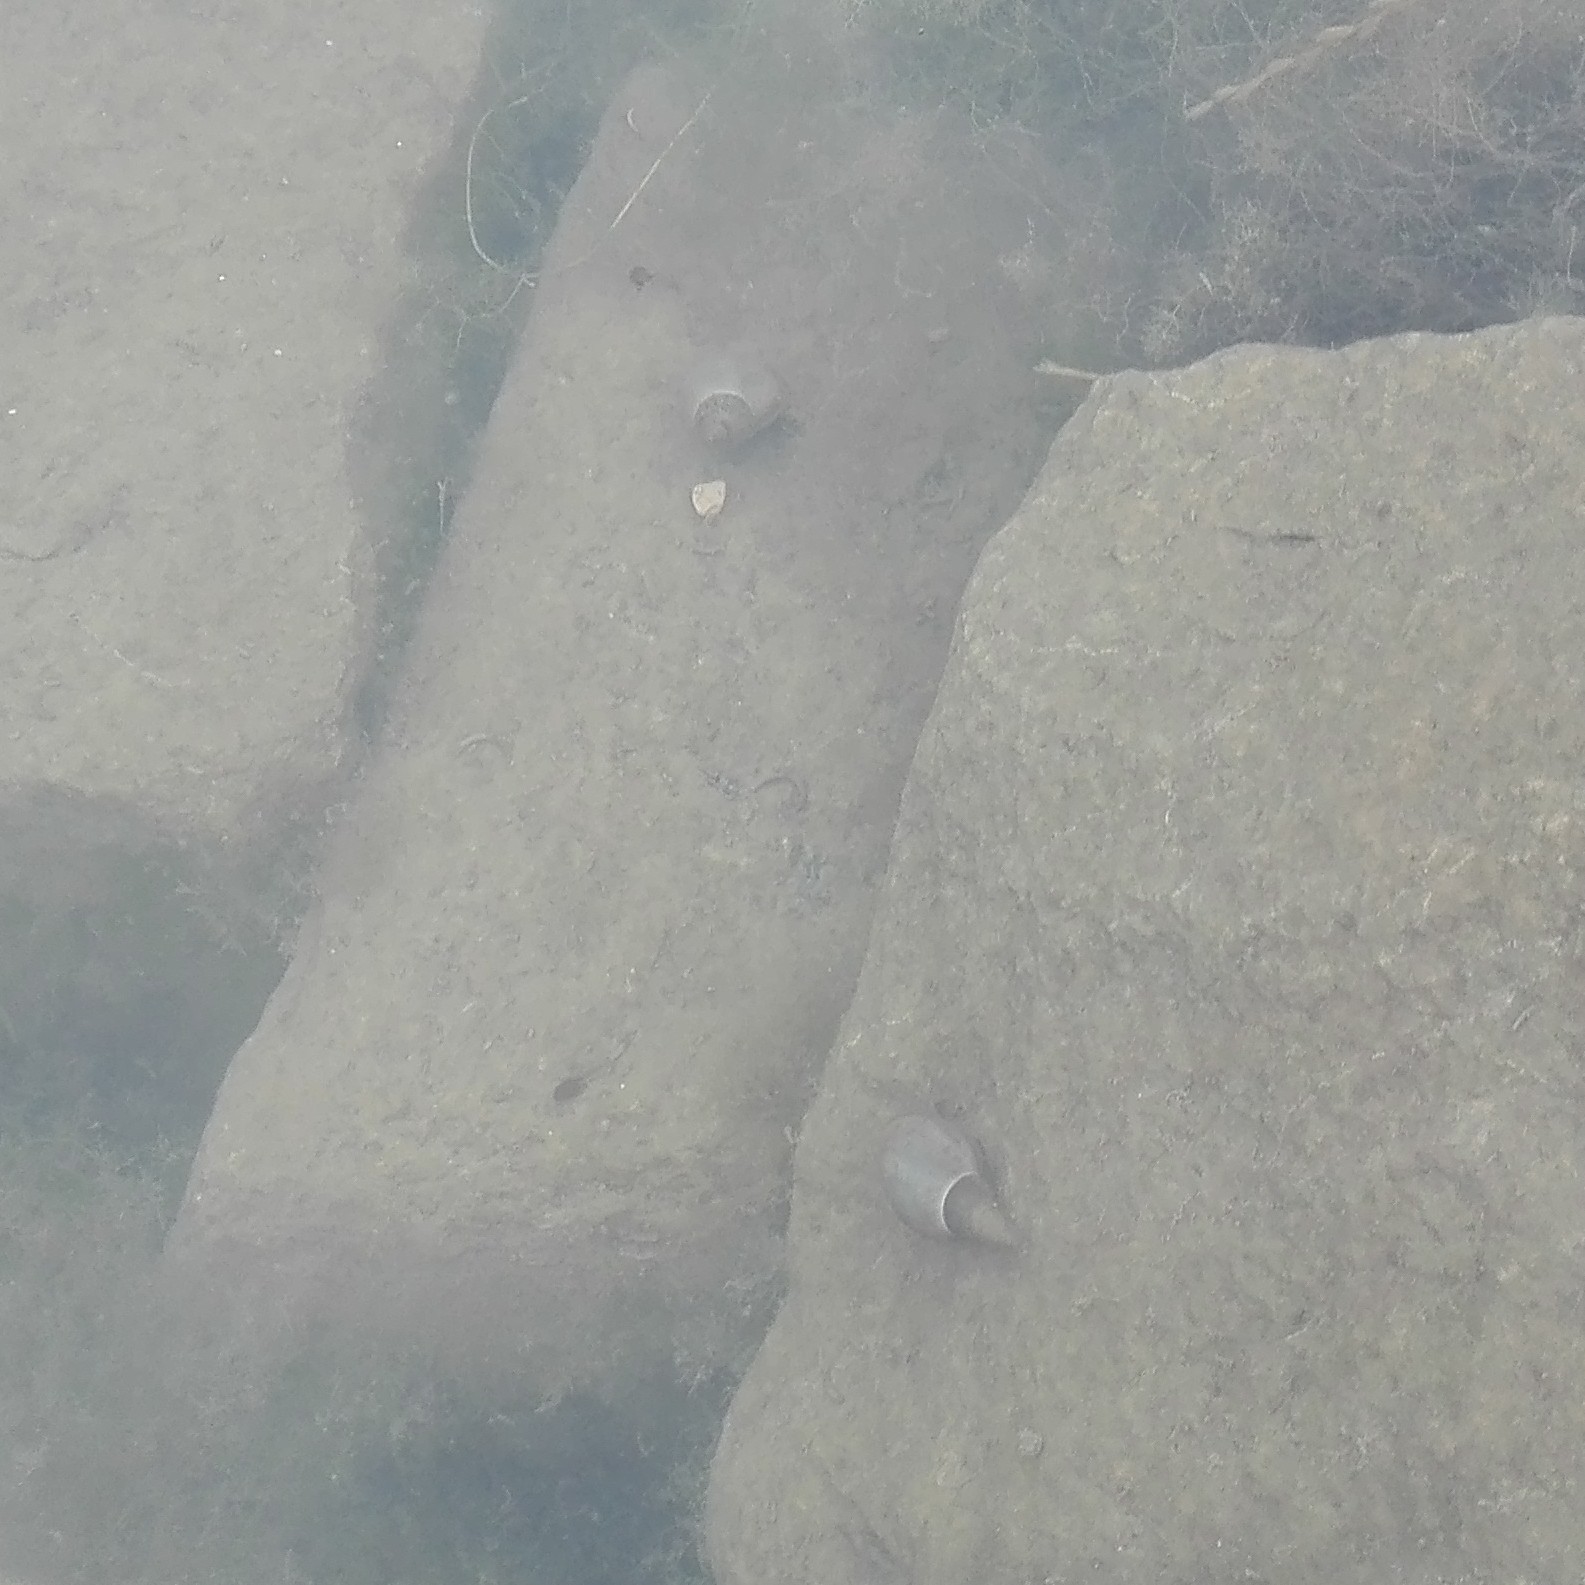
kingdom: Animalia
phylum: Mollusca
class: Gastropoda
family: Lymnaeidae
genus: Lymnaea
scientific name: Lymnaea stagnalis
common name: Great pond snail
